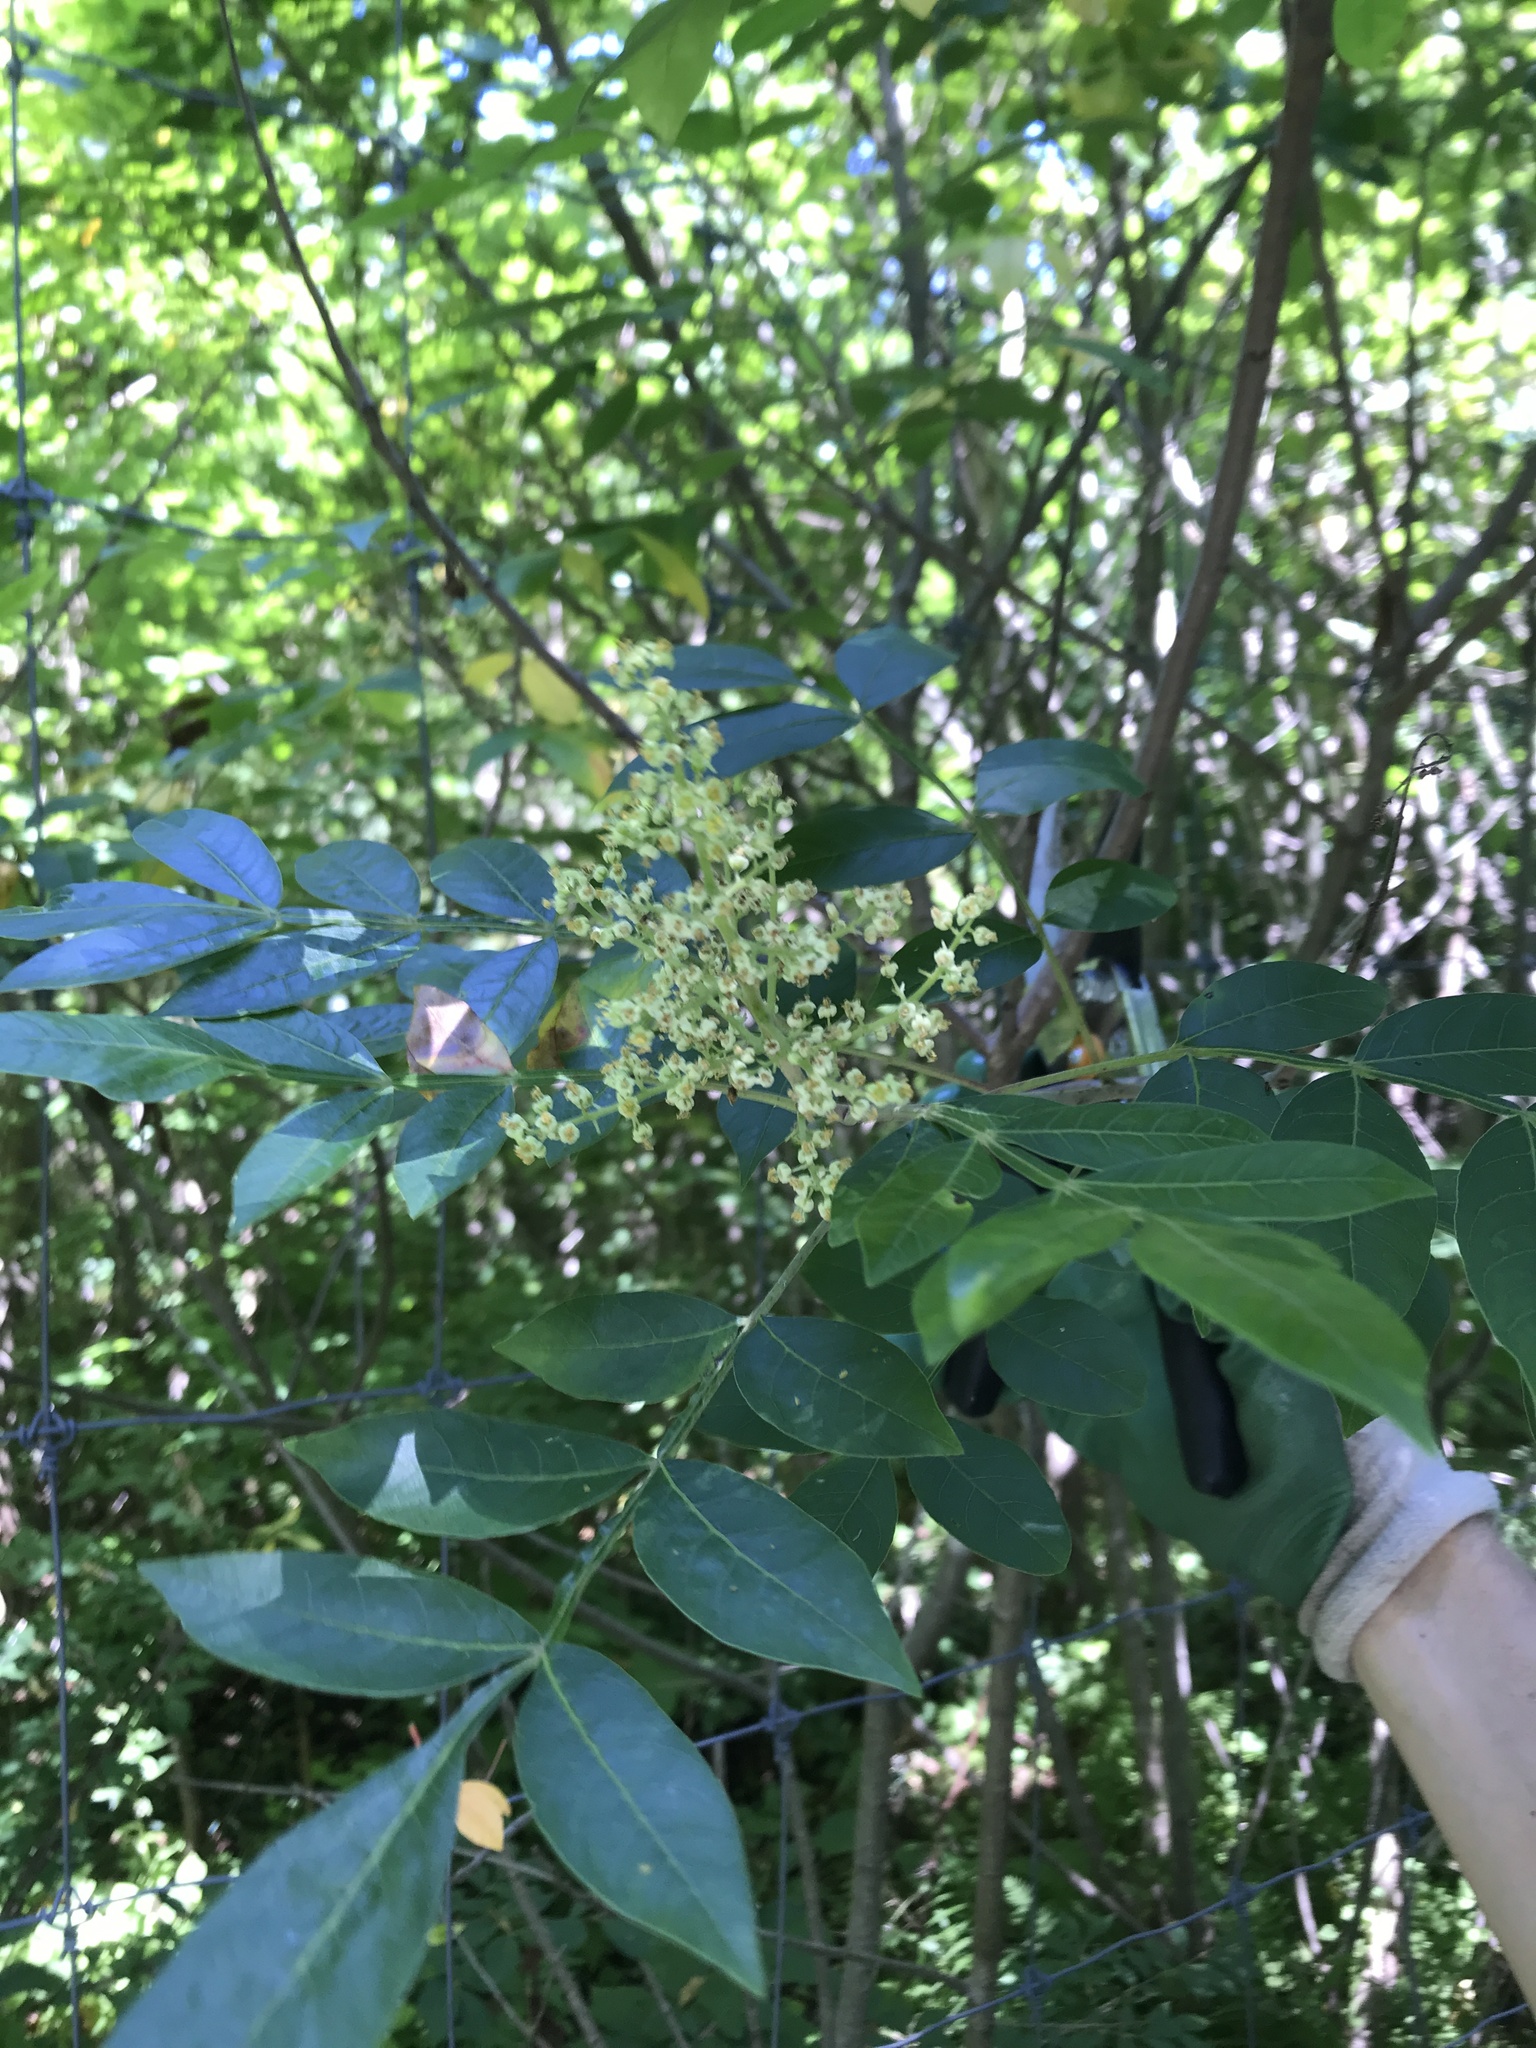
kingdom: Plantae
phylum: Tracheophyta
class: Magnoliopsida
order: Sapindales
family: Anacardiaceae
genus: Rhus
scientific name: Rhus copallina
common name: Shining sumac
